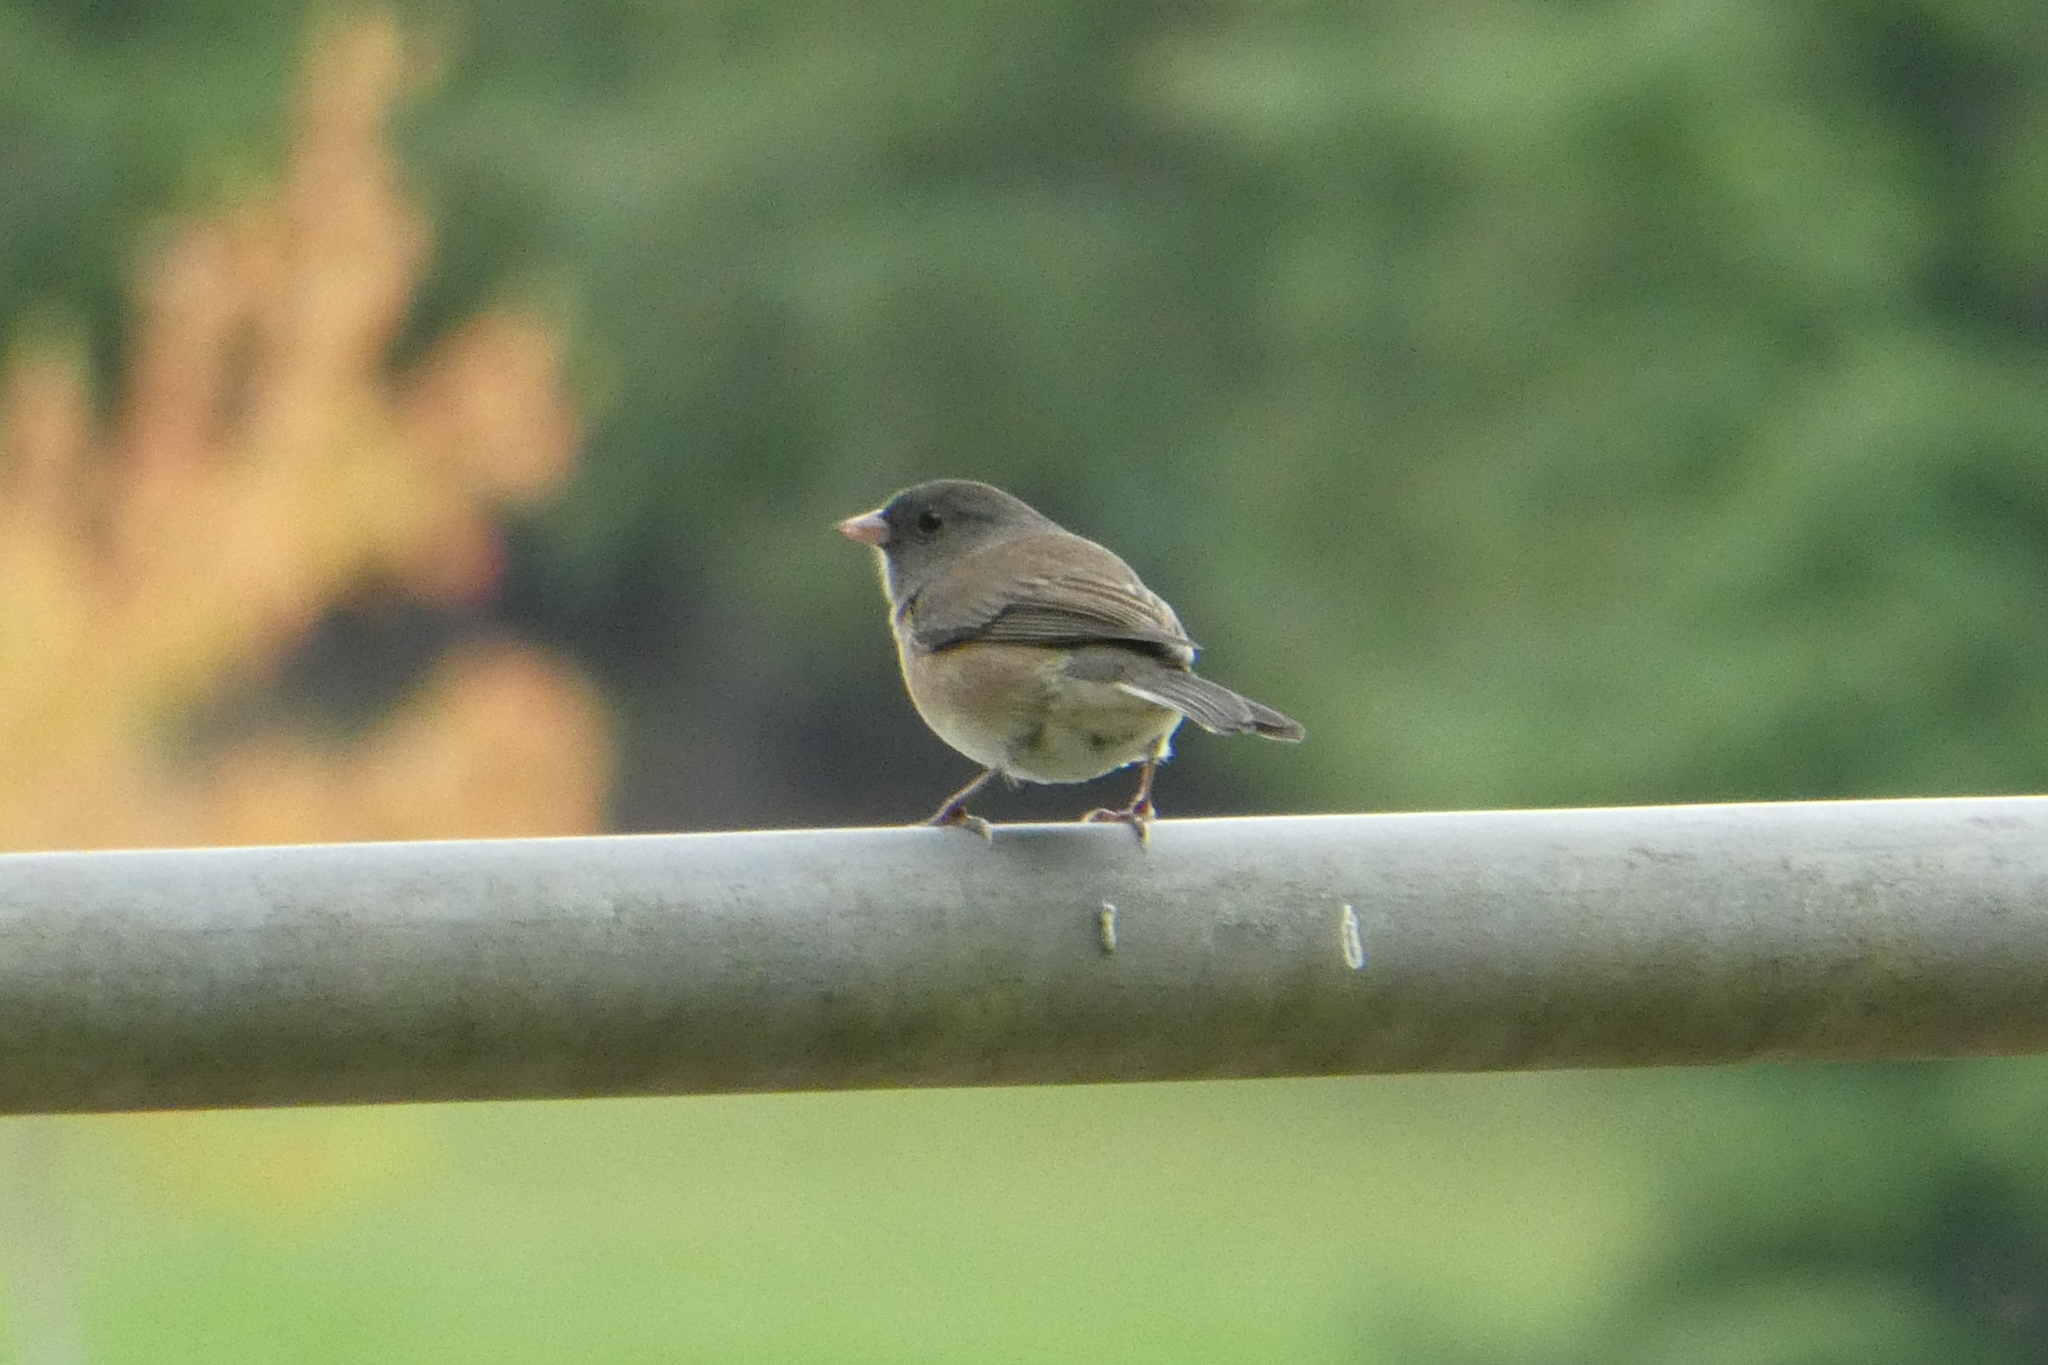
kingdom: Animalia
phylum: Chordata
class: Aves
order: Passeriformes
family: Passerellidae
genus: Junco
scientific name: Junco hyemalis
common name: Dark-eyed junco
